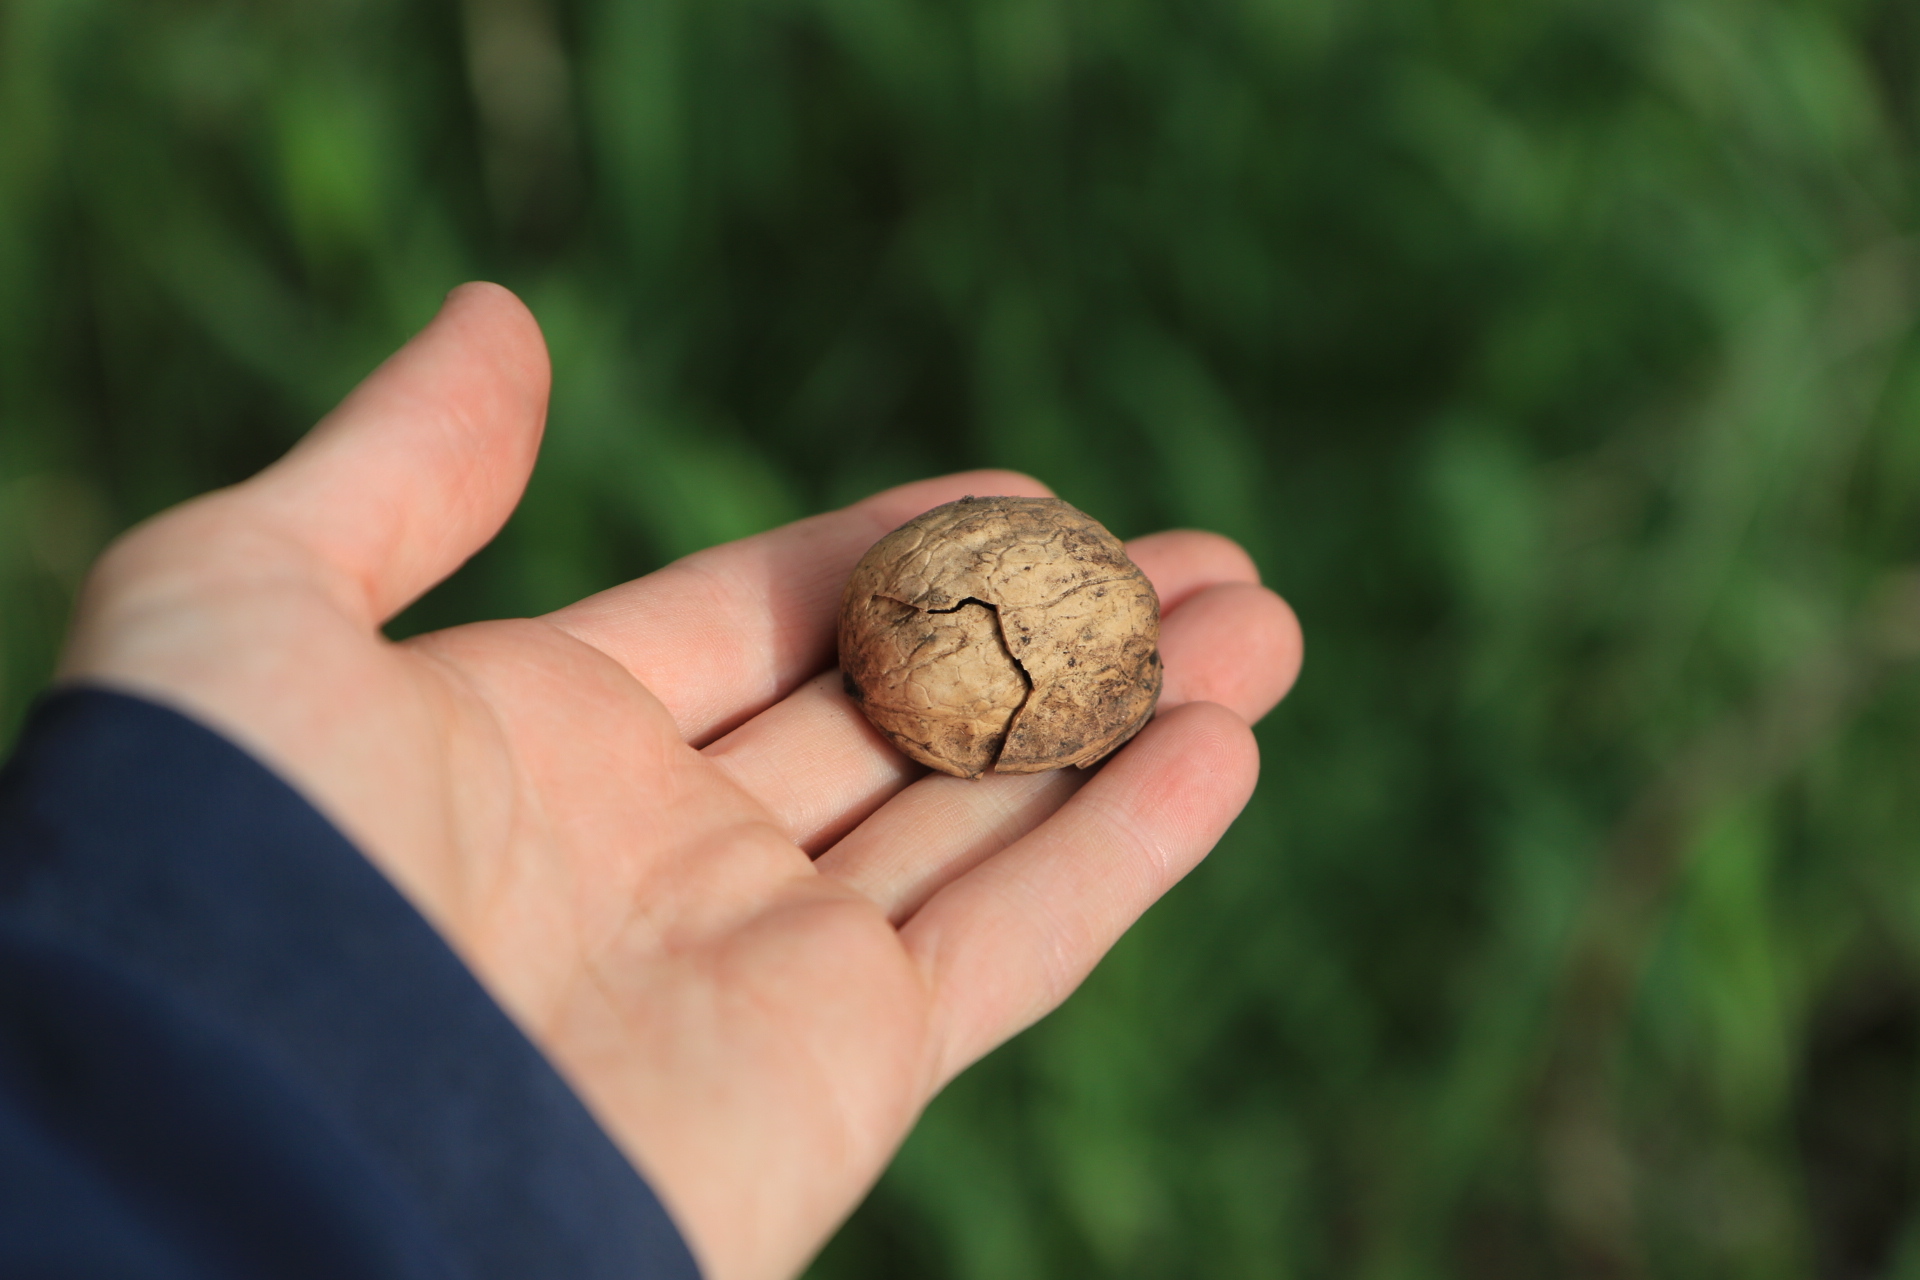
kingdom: Plantae
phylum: Tracheophyta
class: Magnoliopsida
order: Fagales
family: Juglandaceae
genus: Juglans
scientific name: Juglans regia
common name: Walnut
